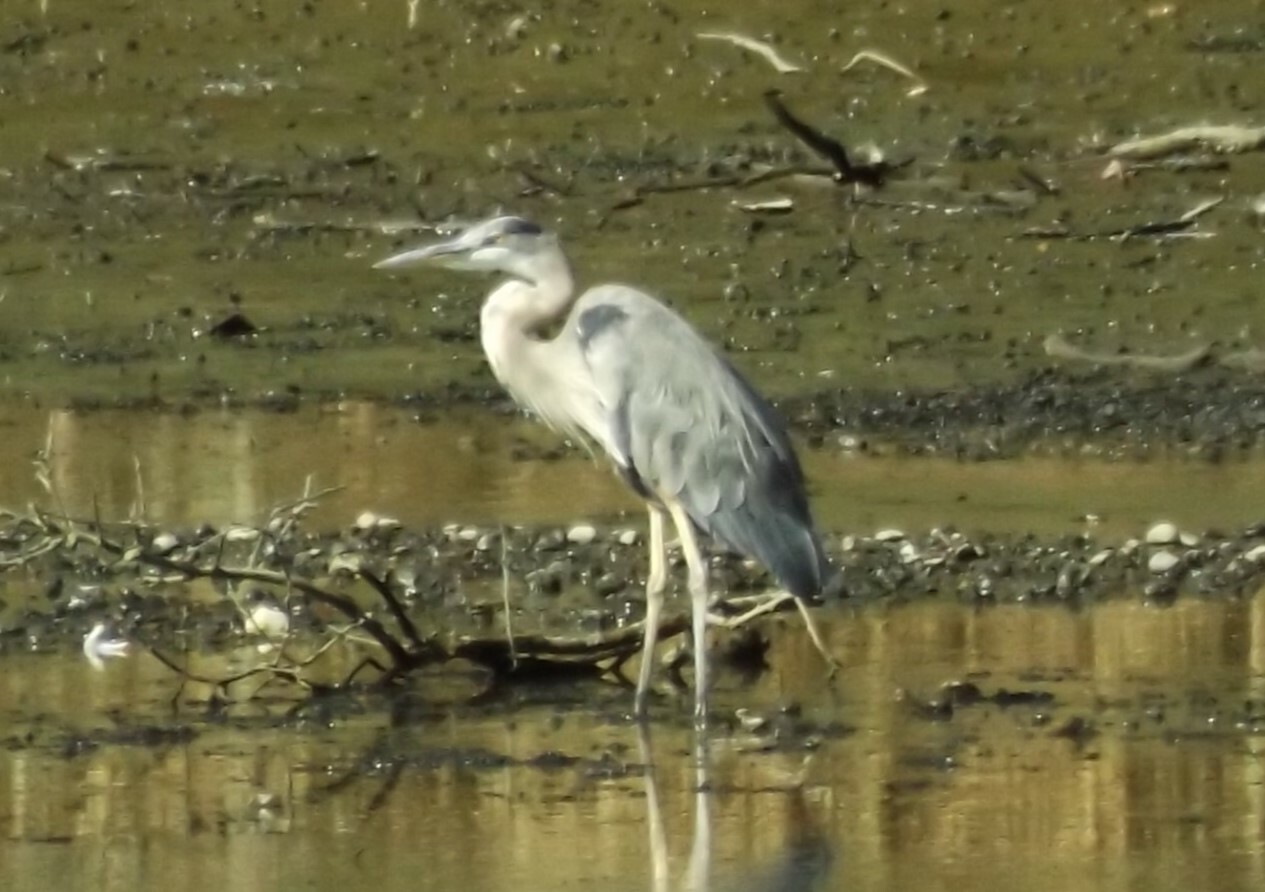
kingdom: Animalia
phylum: Chordata
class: Aves
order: Pelecaniformes
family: Ardeidae
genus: Ardea
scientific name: Ardea herodias
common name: Great blue heron
